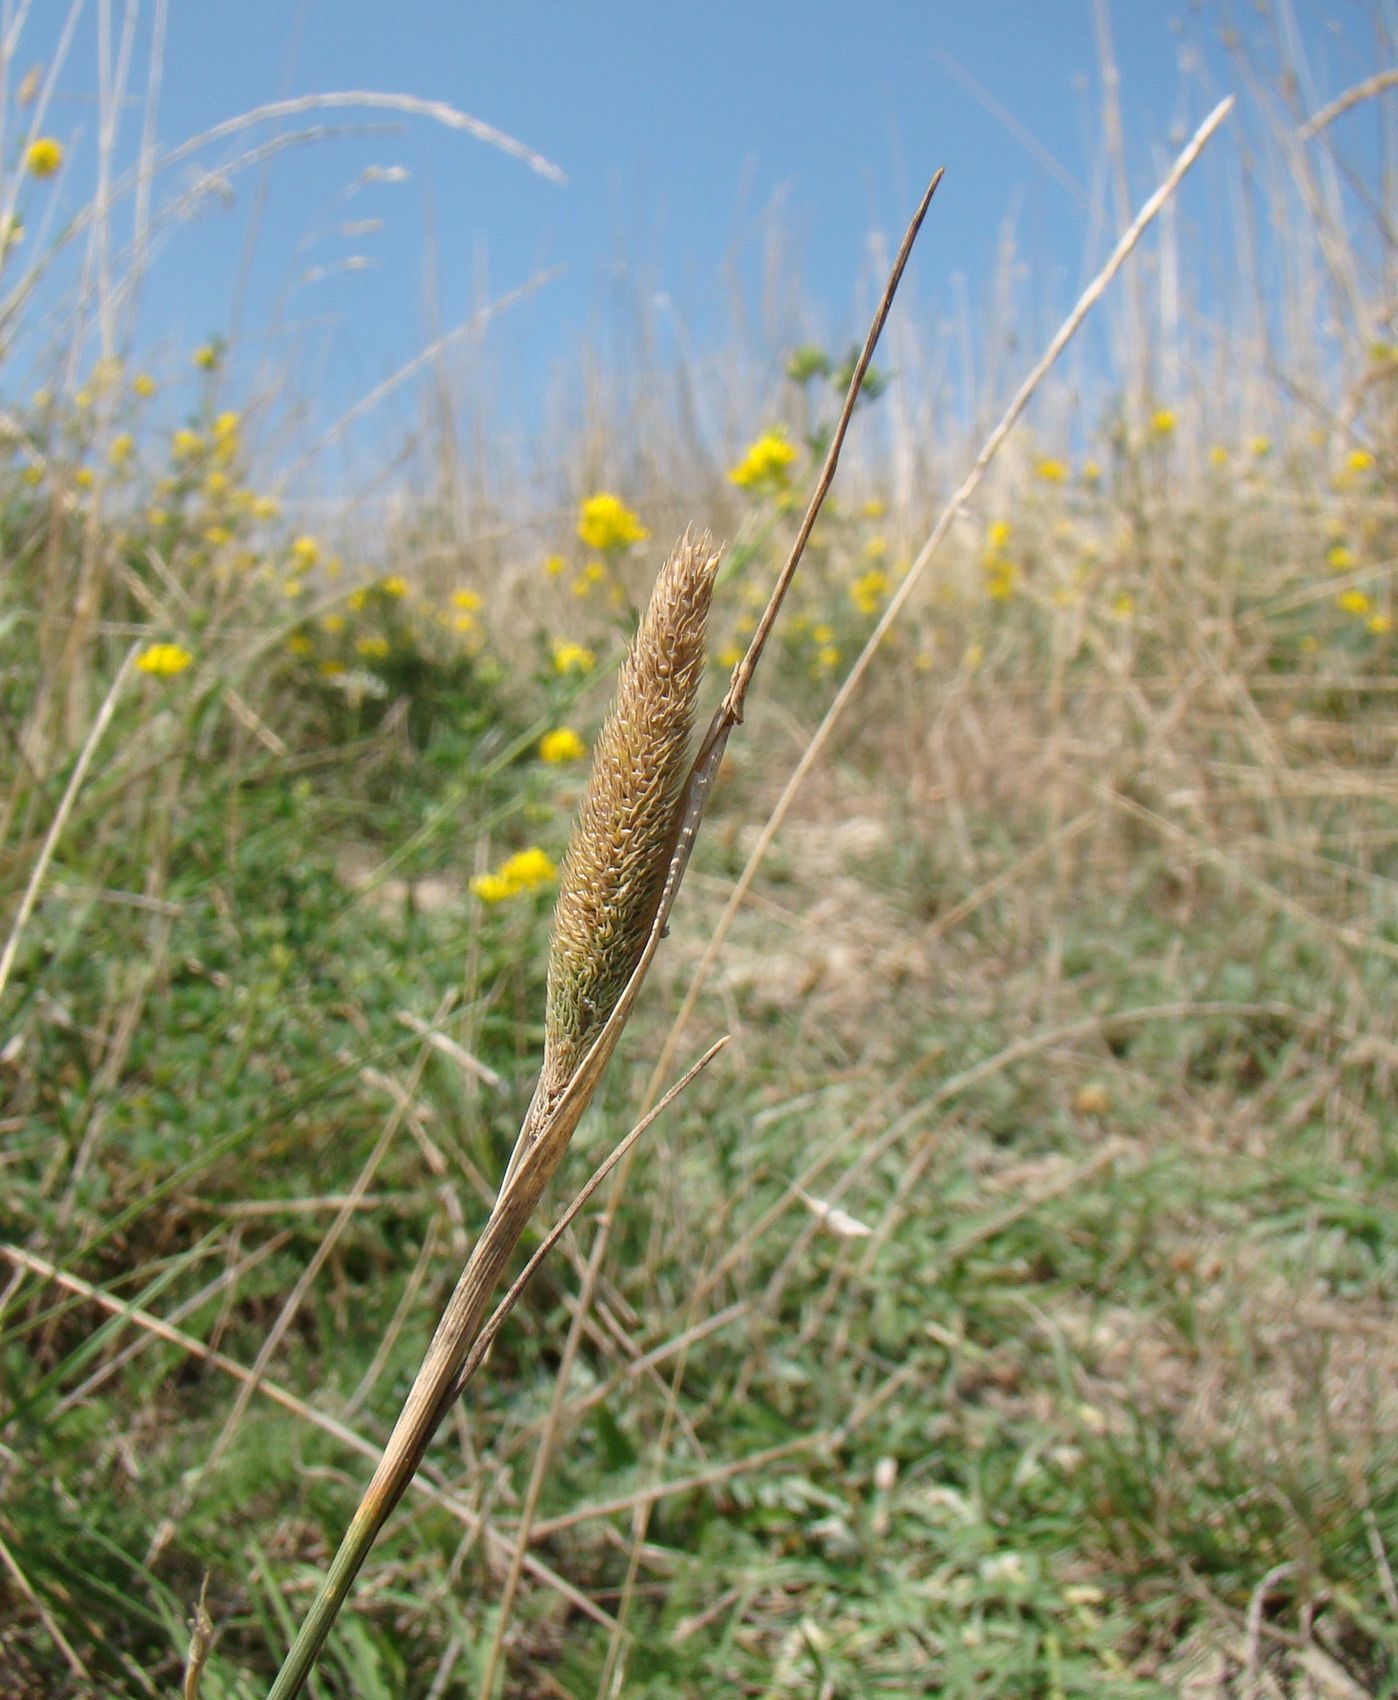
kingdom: Plantae
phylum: Tracheophyta
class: Liliopsida
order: Poales
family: Poaceae
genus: Phleum
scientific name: Phleum pratense
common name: Timothy grass
